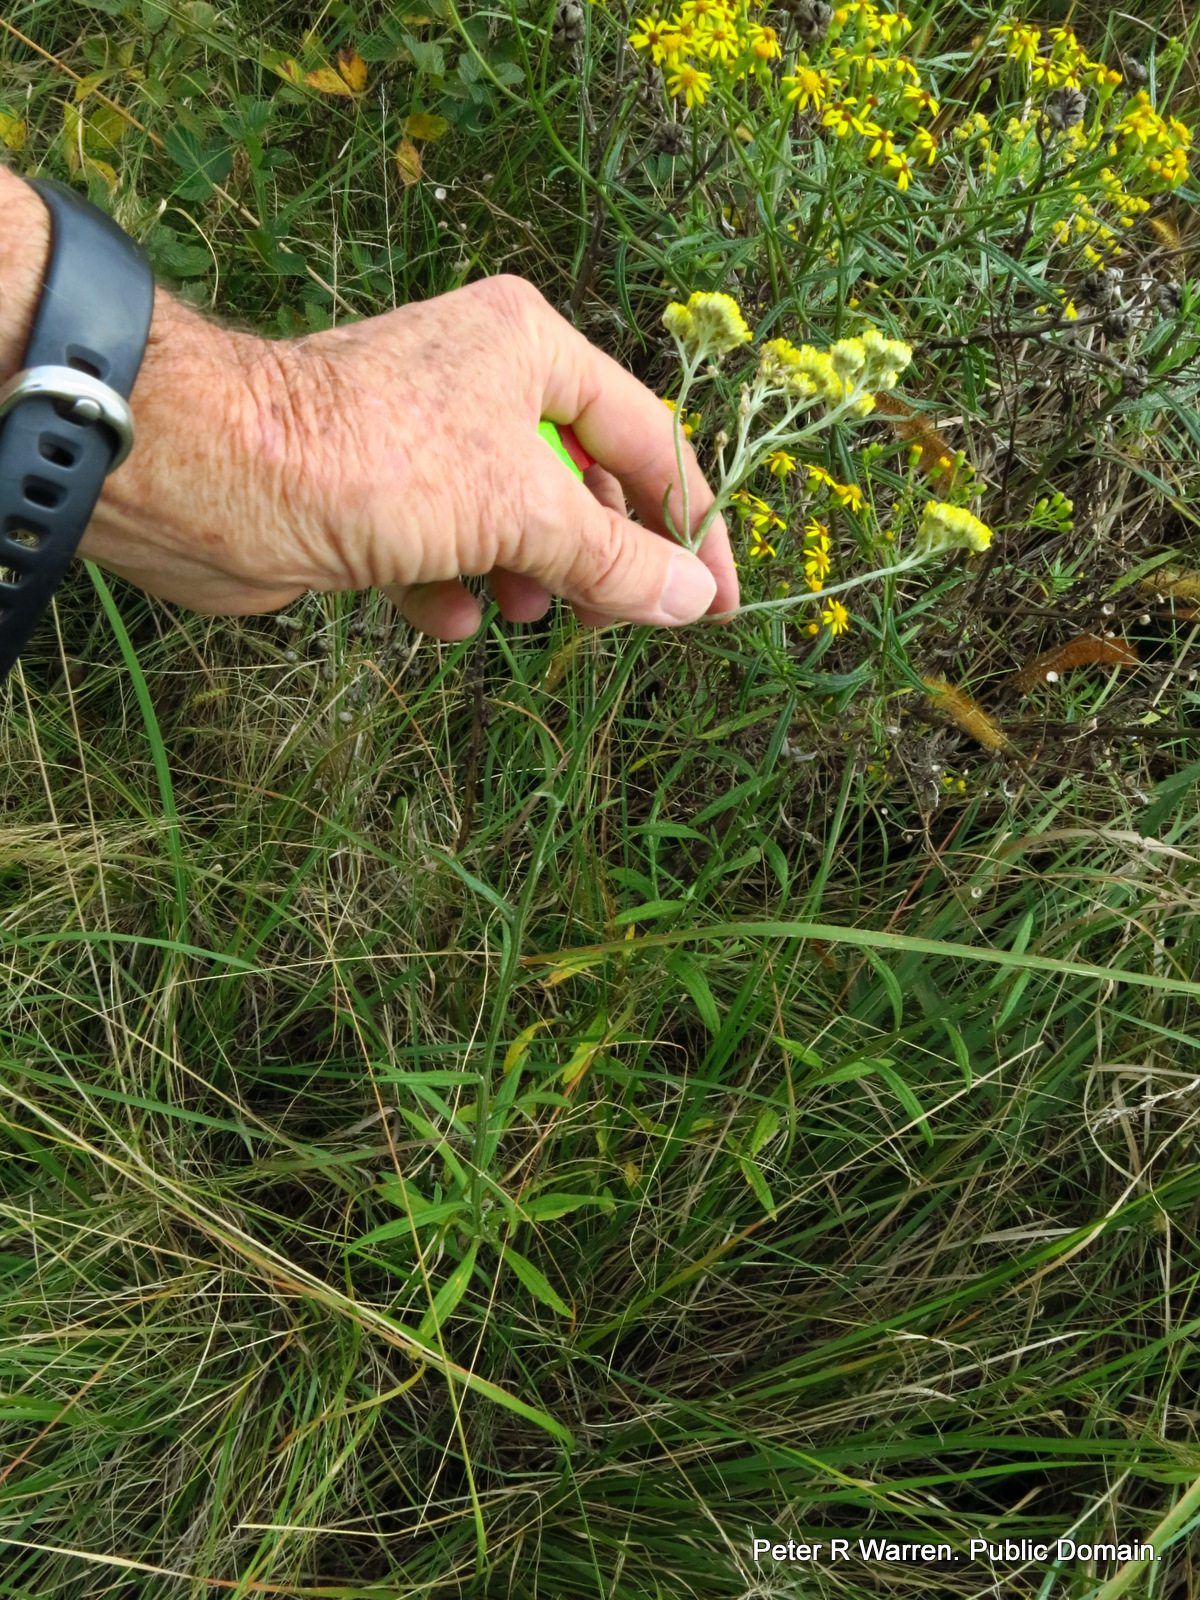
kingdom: Plantae
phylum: Tracheophyta
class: Magnoliopsida
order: Asterales
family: Asteraceae
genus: Helichrysum
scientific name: Helichrysum stenopterum
